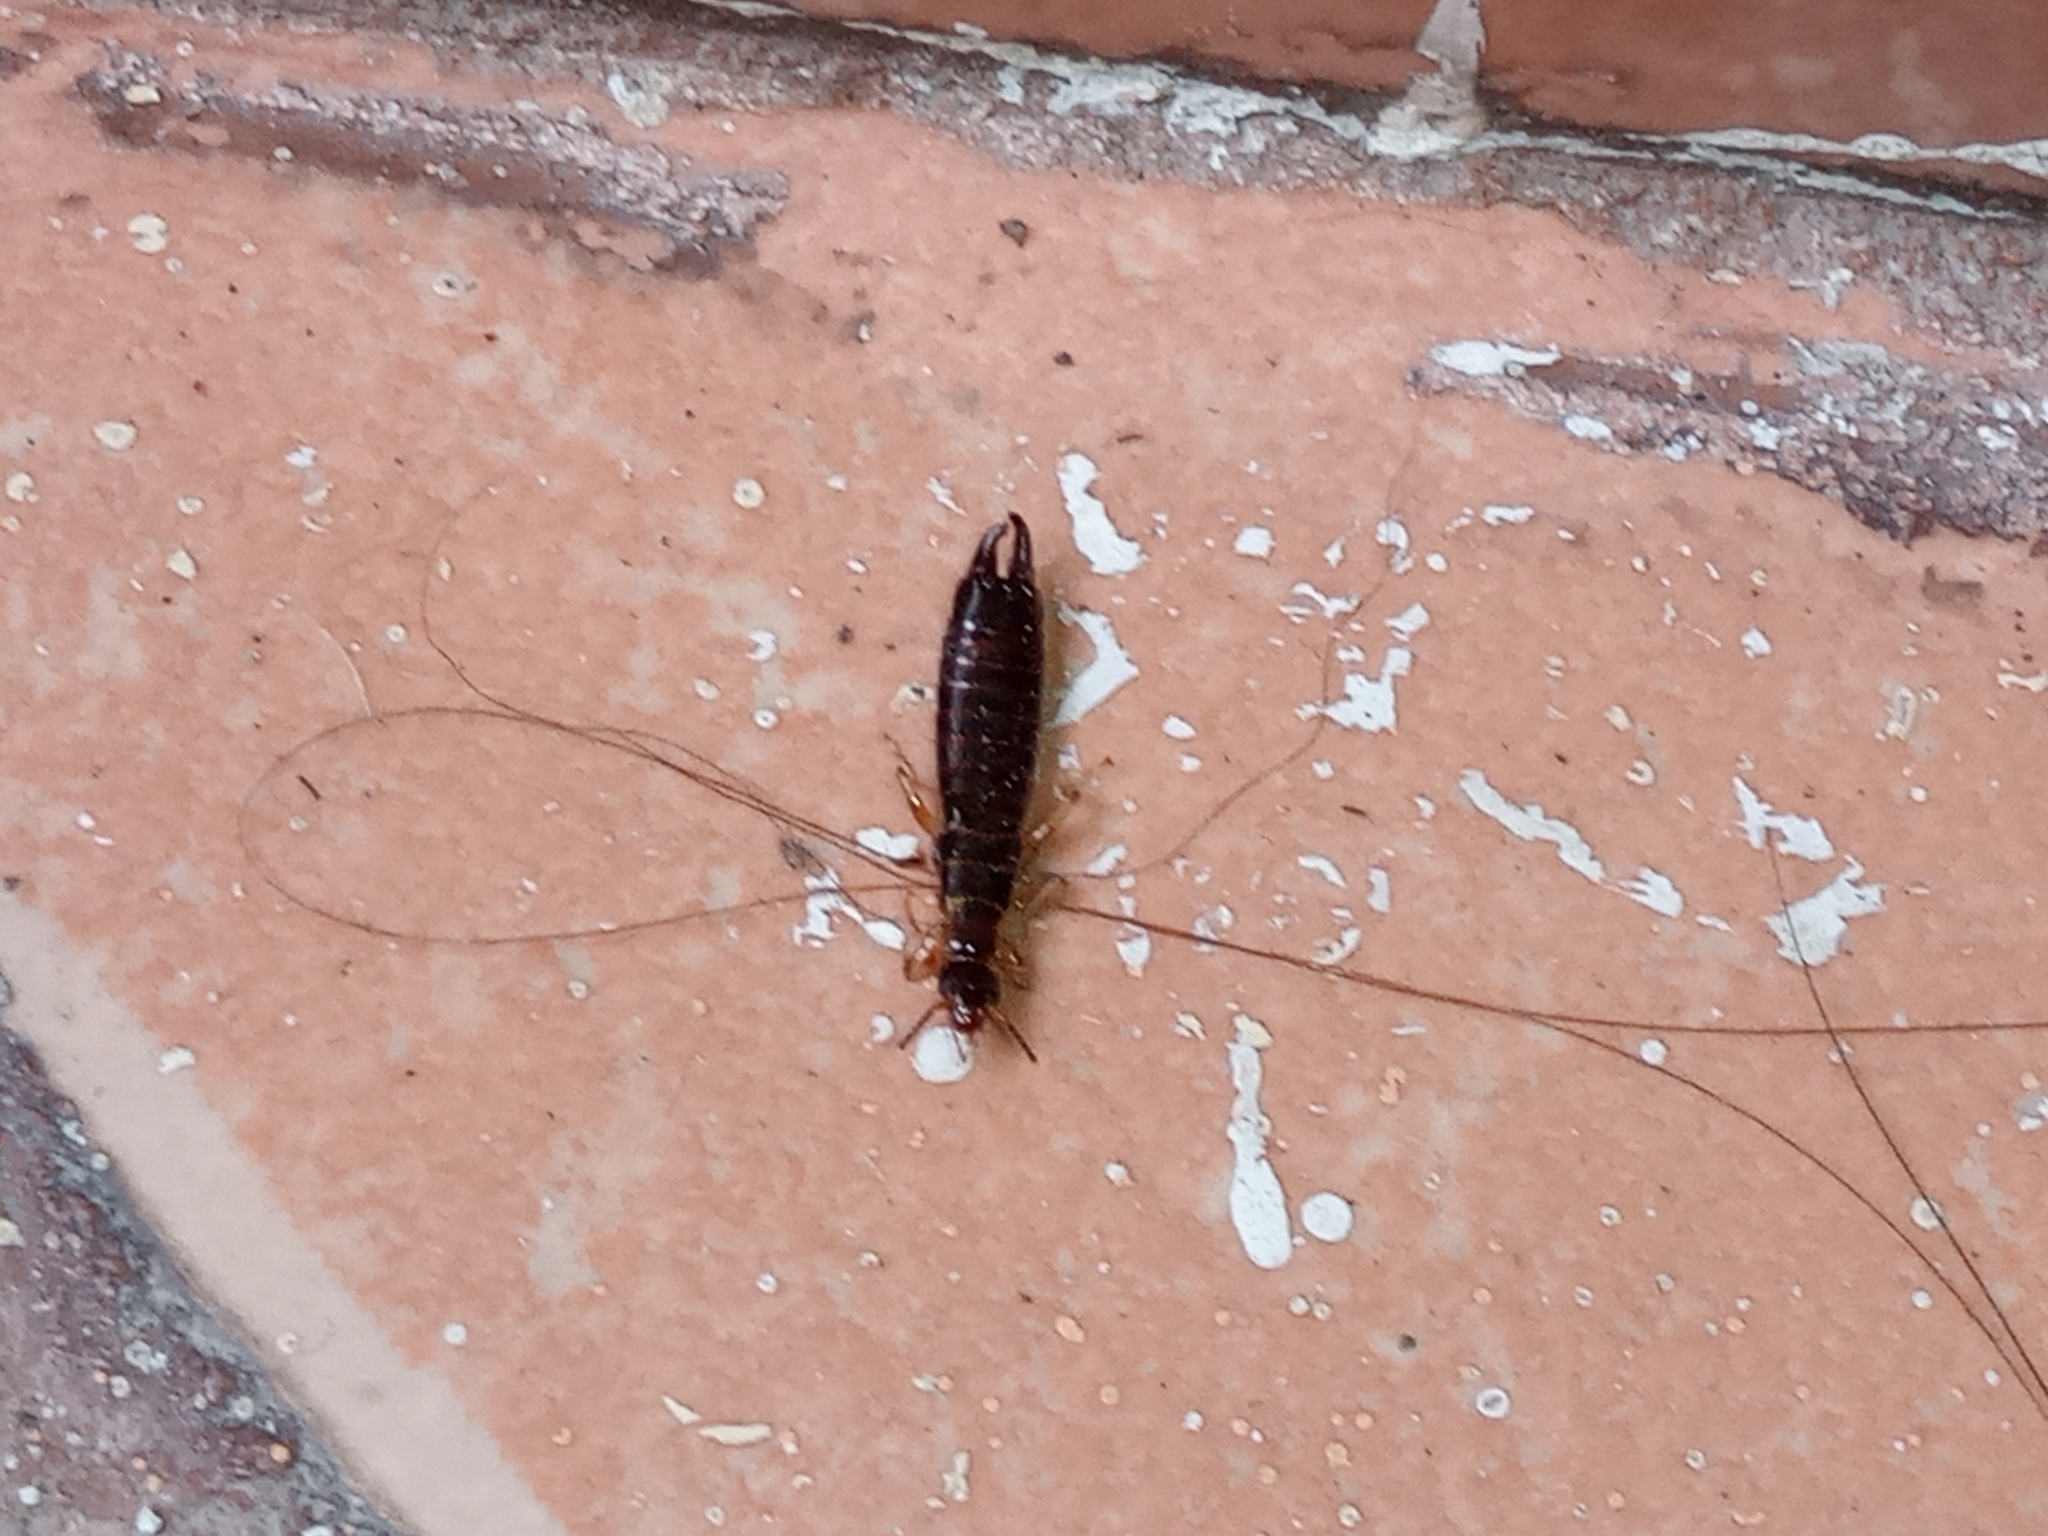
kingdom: Animalia
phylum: Arthropoda
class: Insecta
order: Dermaptera
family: Anisolabididae
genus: Euborellia
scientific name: Euborellia annulipes
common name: Ringlegged earwig
